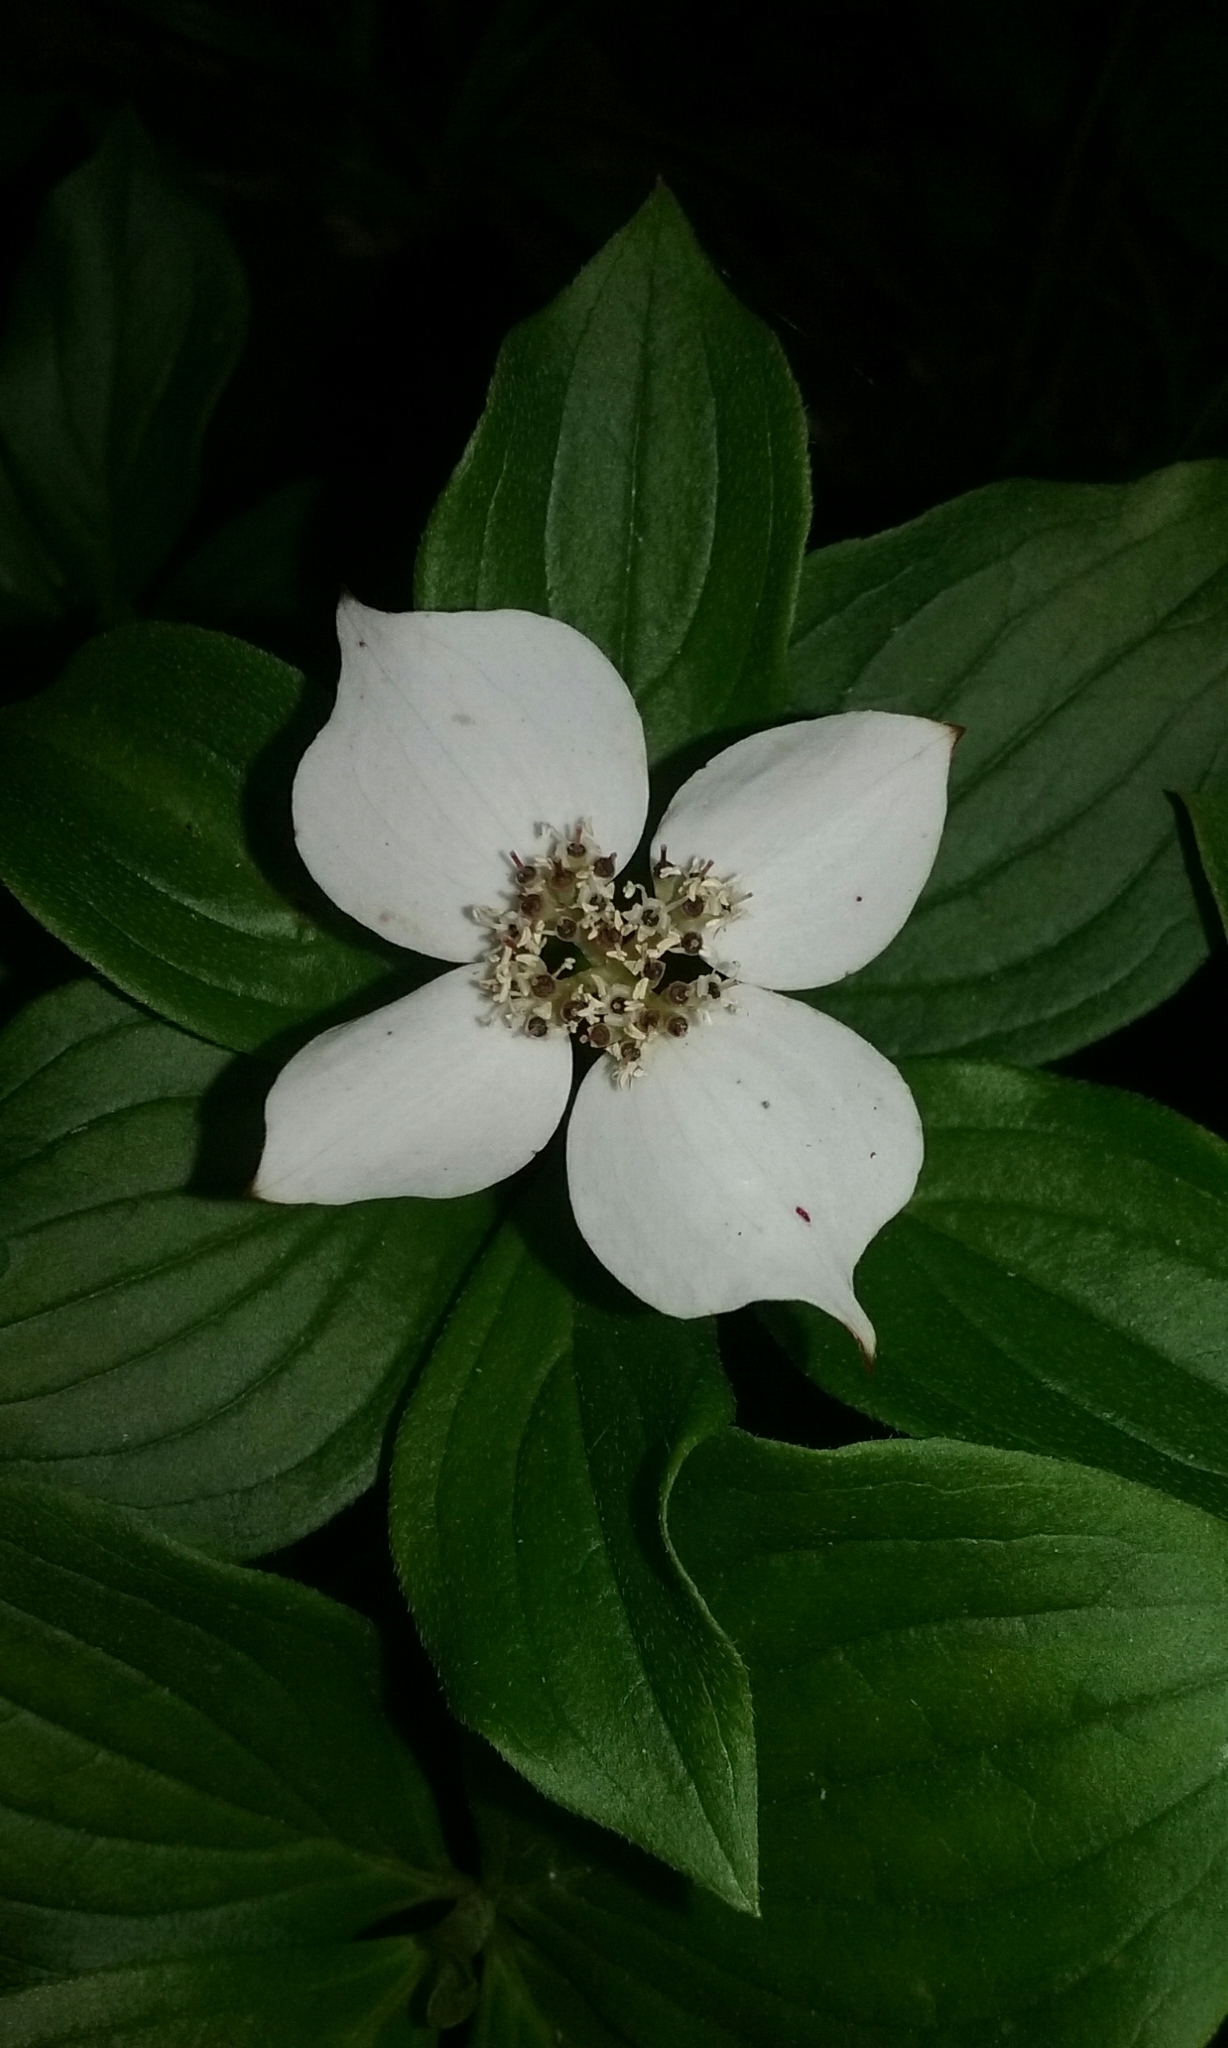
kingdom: Plantae
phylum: Tracheophyta
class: Magnoliopsida
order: Cornales
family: Cornaceae
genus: Cornus
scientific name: Cornus canadensis
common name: Creeping dogwood
